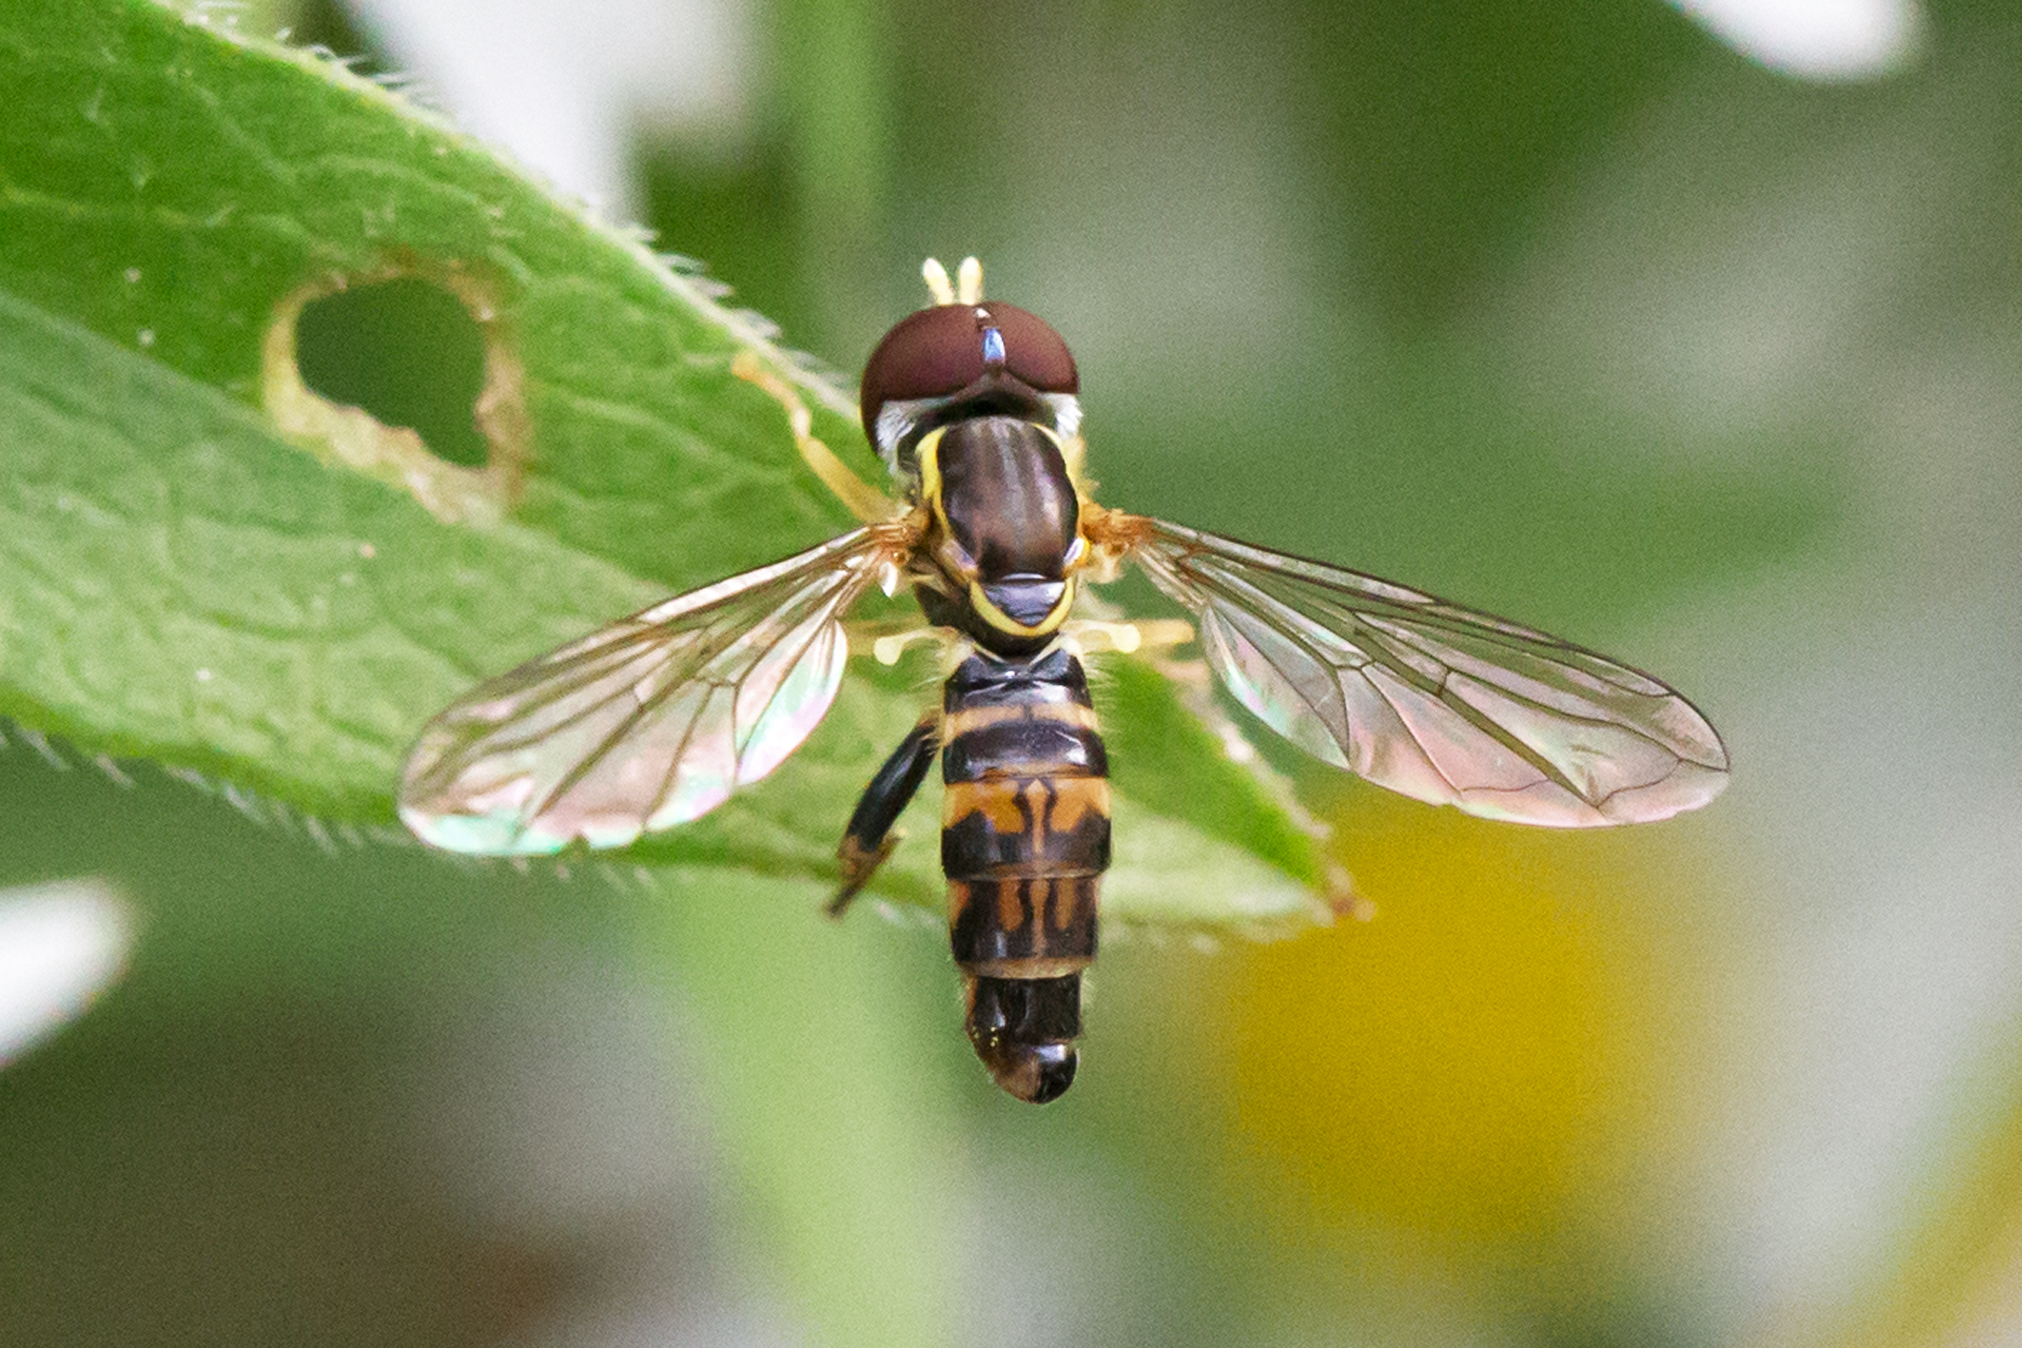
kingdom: Animalia
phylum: Arthropoda
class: Insecta
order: Diptera
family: Syrphidae
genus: Toxomerus
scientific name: Toxomerus geminatus
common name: Eastern calligrapher
